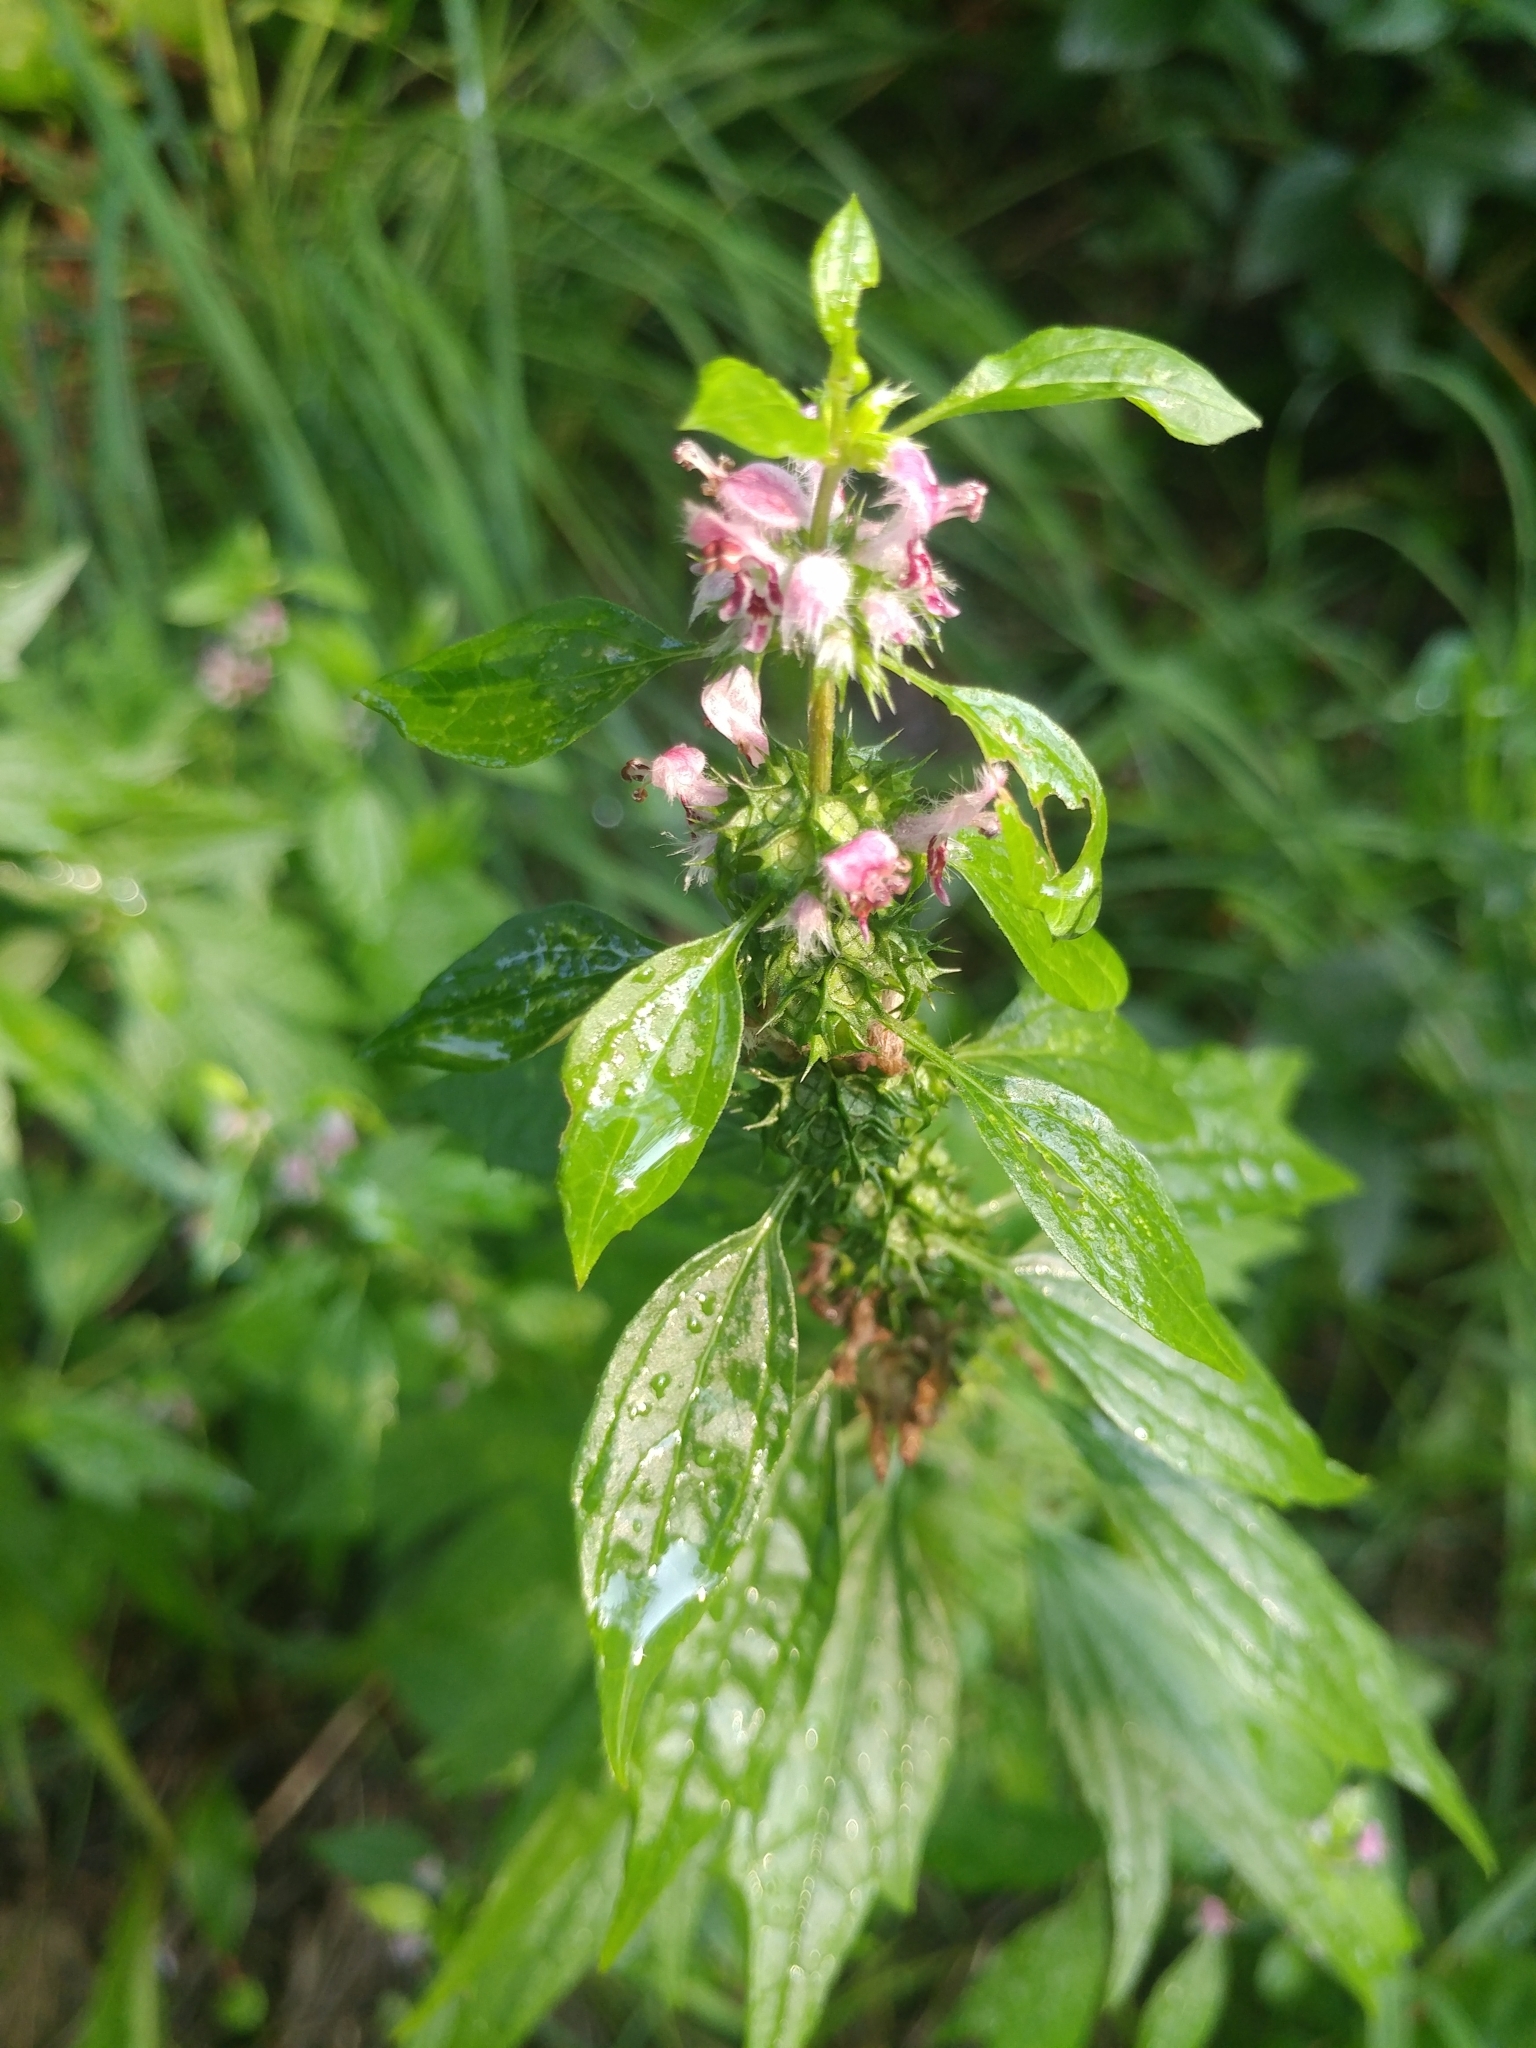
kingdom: Plantae
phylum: Tracheophyta
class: Magnoliopsida
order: Lamiales
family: Lamiaceae
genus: Leonurus
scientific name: Leonurus cardiaca
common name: Motherwort
